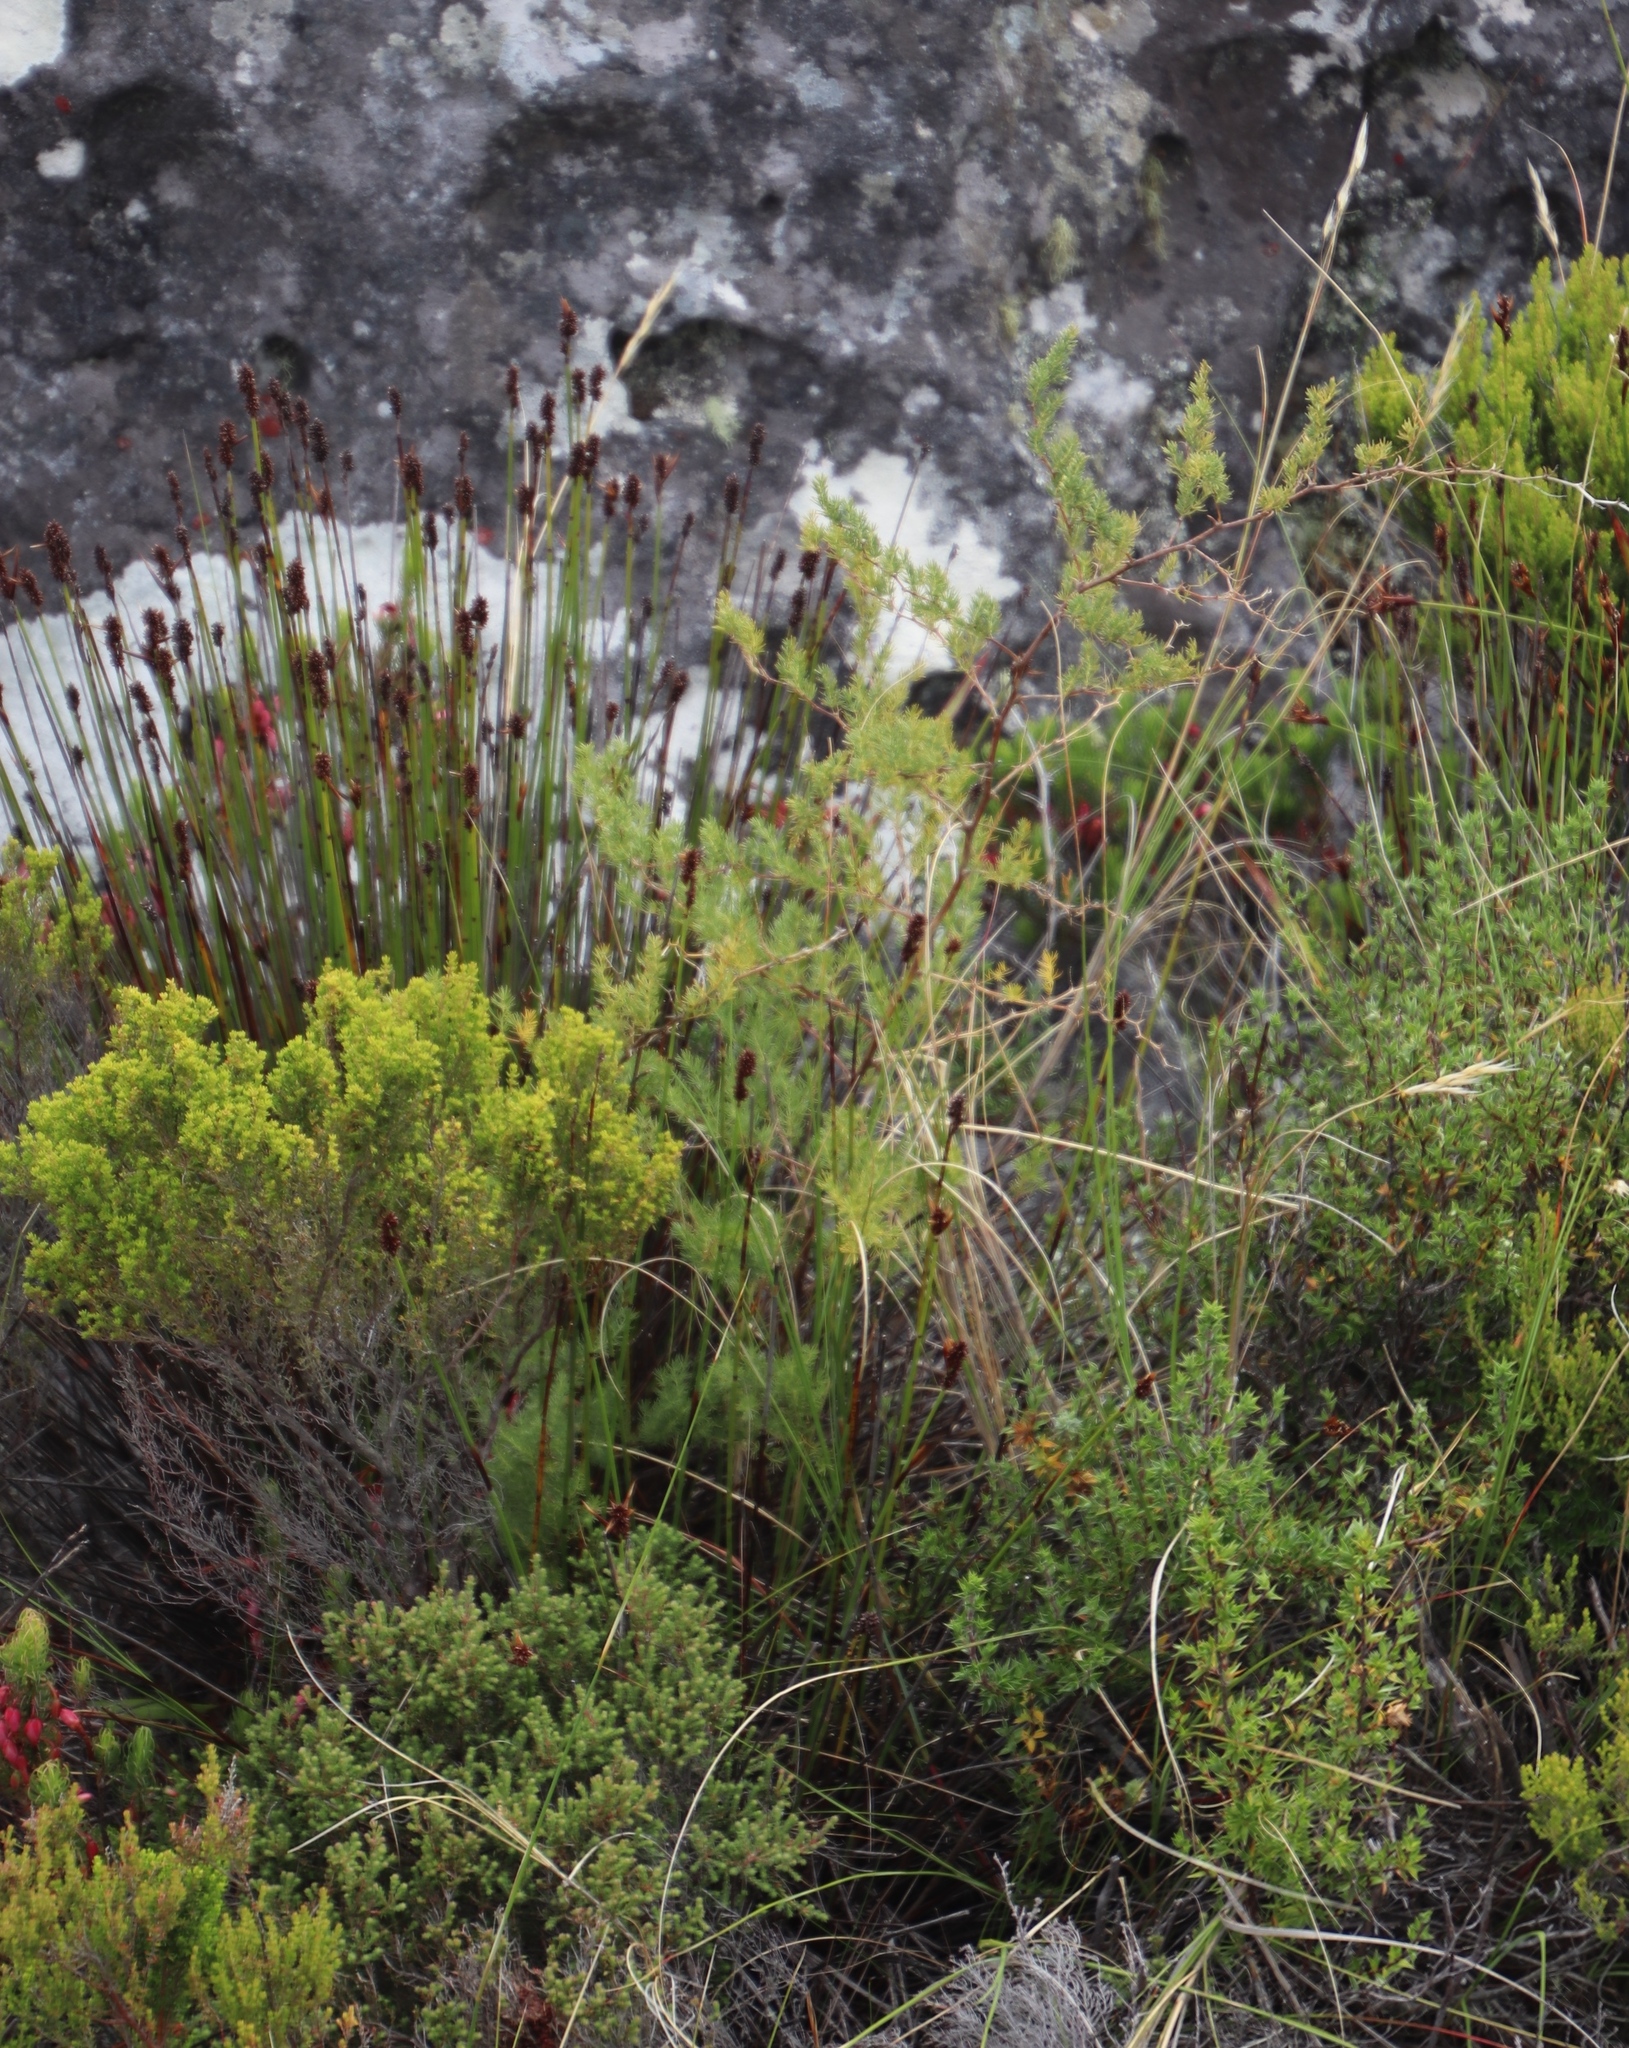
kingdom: Plantae
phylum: Tracheophyta
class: Liliopsida
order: Asparagales
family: Asparagaceae
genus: Asparagus
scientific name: Asparagus rubicundus
